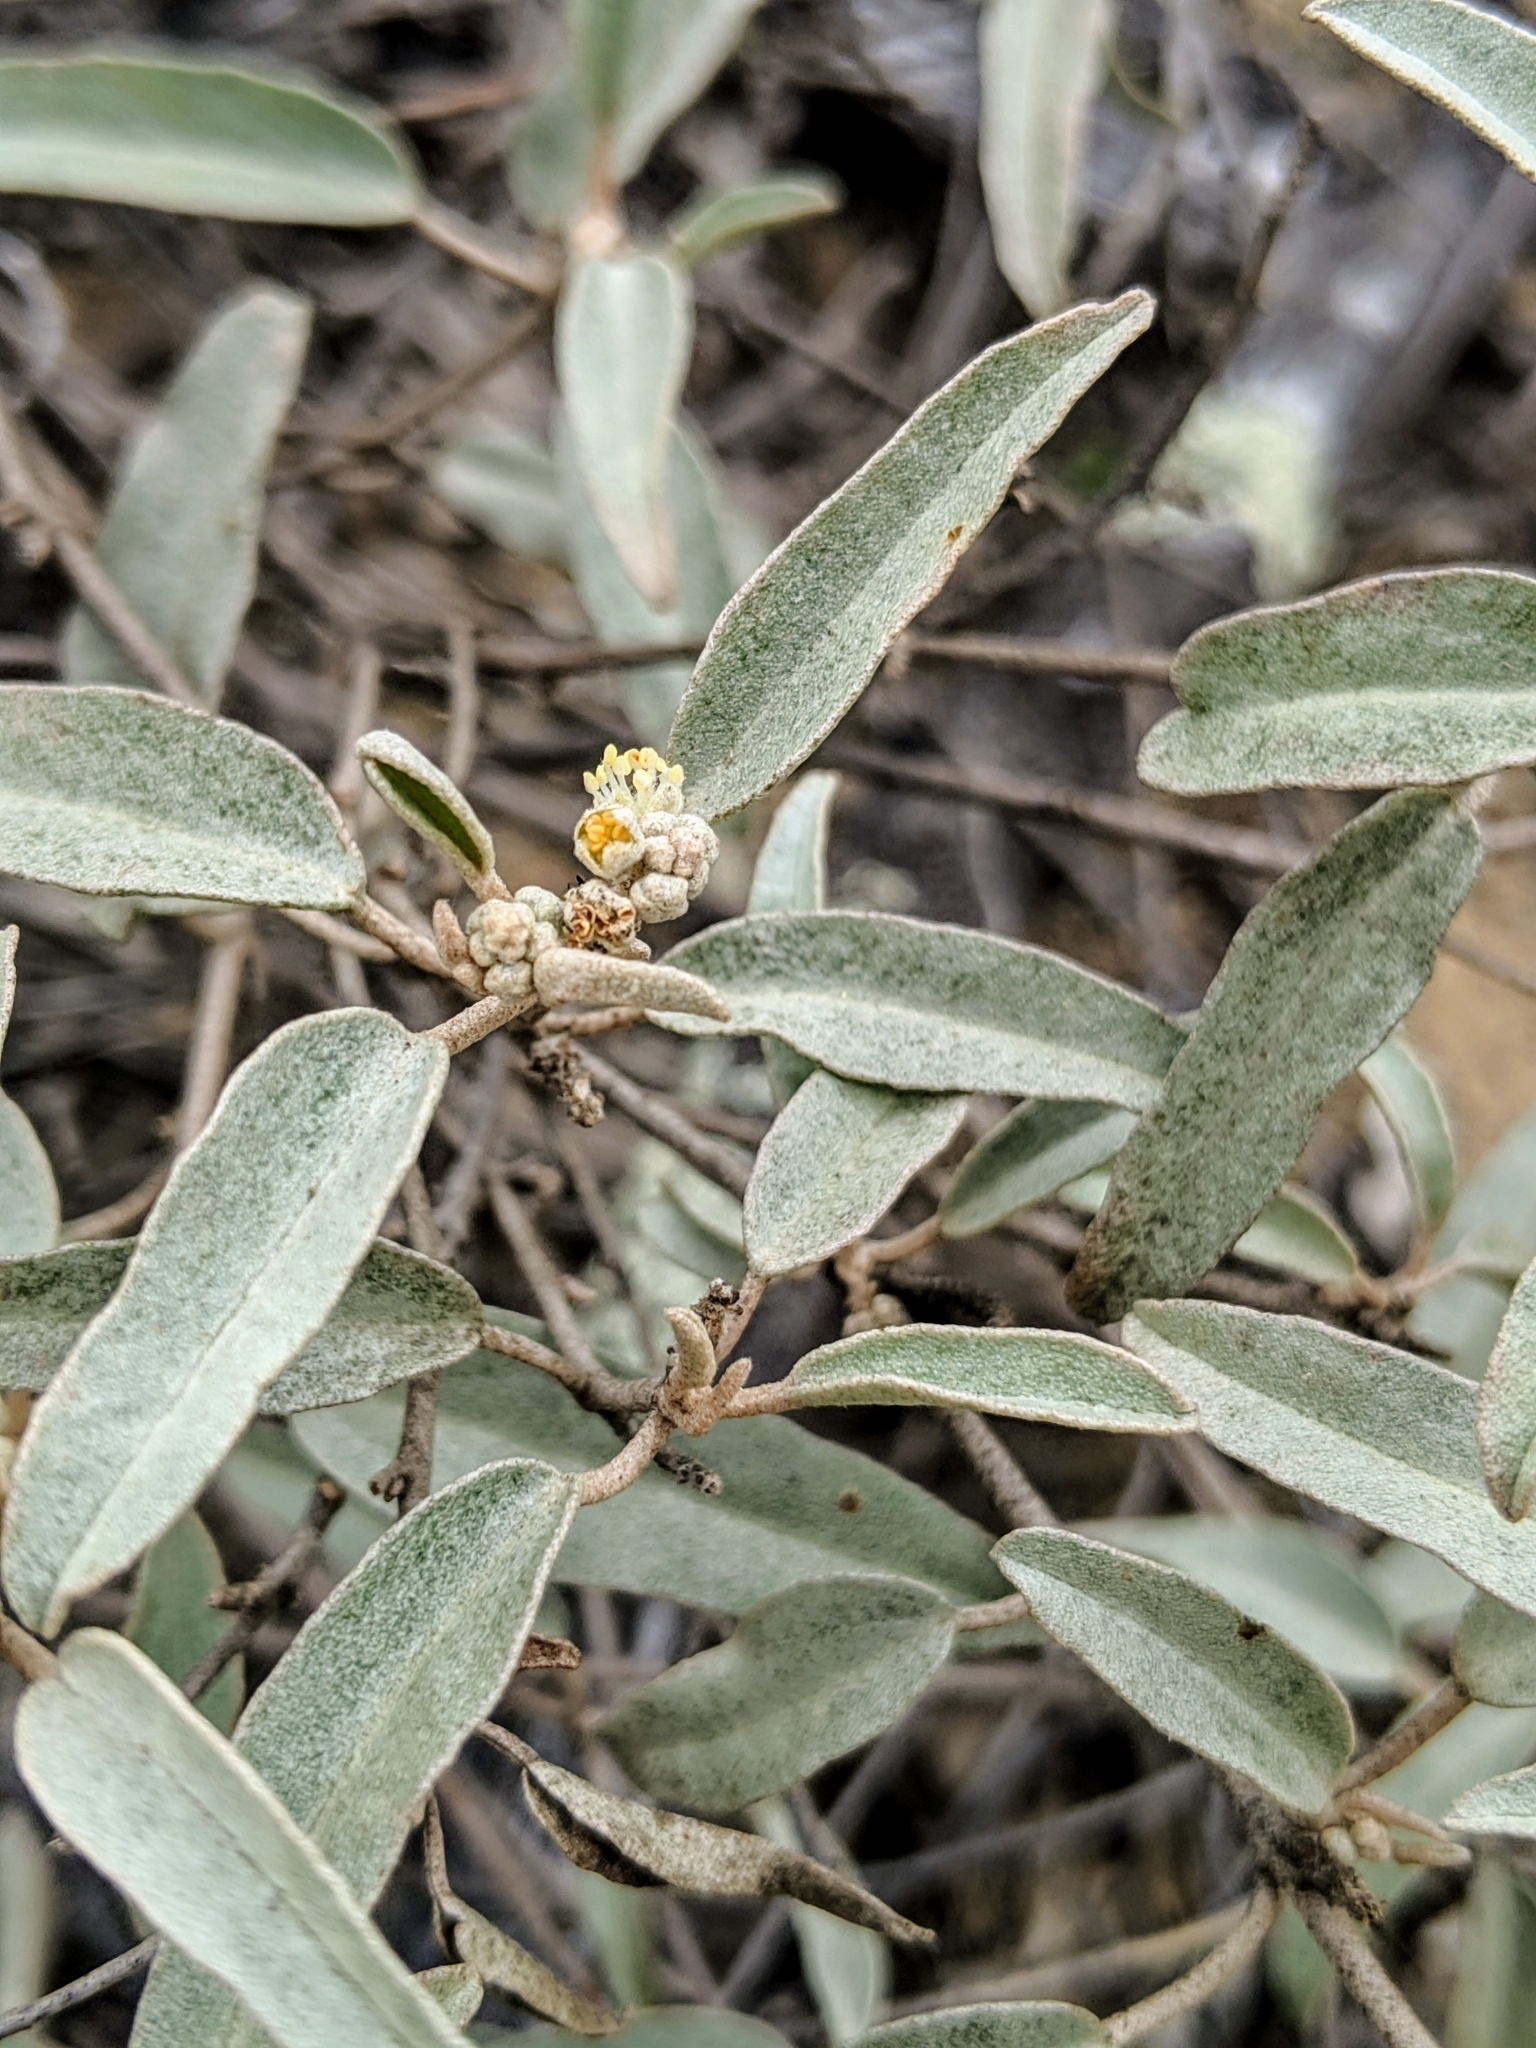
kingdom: Plantae
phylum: Tracheophyta
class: Magnoliopsida
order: Malpighiales
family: Euphorbiaceae
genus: Croton
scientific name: Croton californicus
